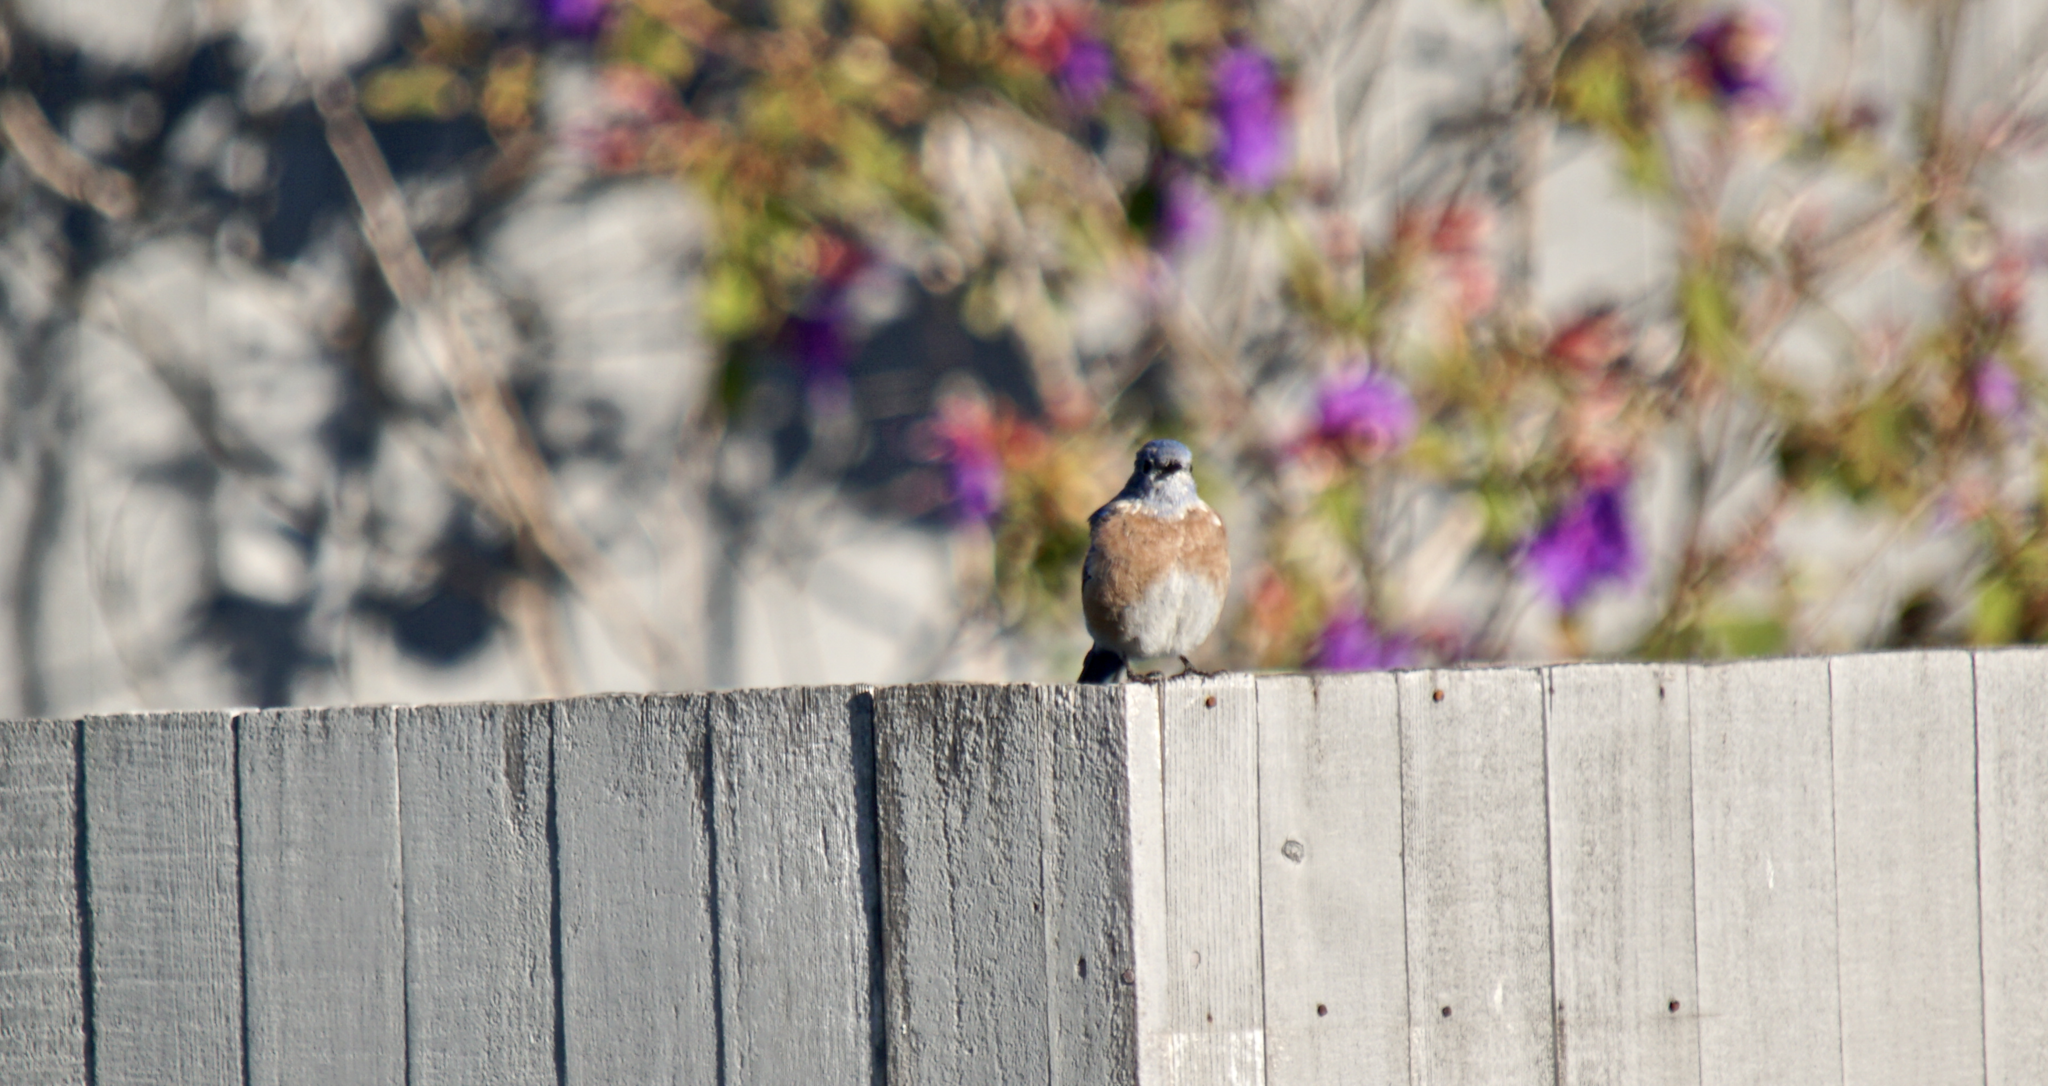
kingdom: Animalia
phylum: Chordata
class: Aves
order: Passeriformes
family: Turdidae
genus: Sialia
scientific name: Sialia mexicana
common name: Western bluebird
